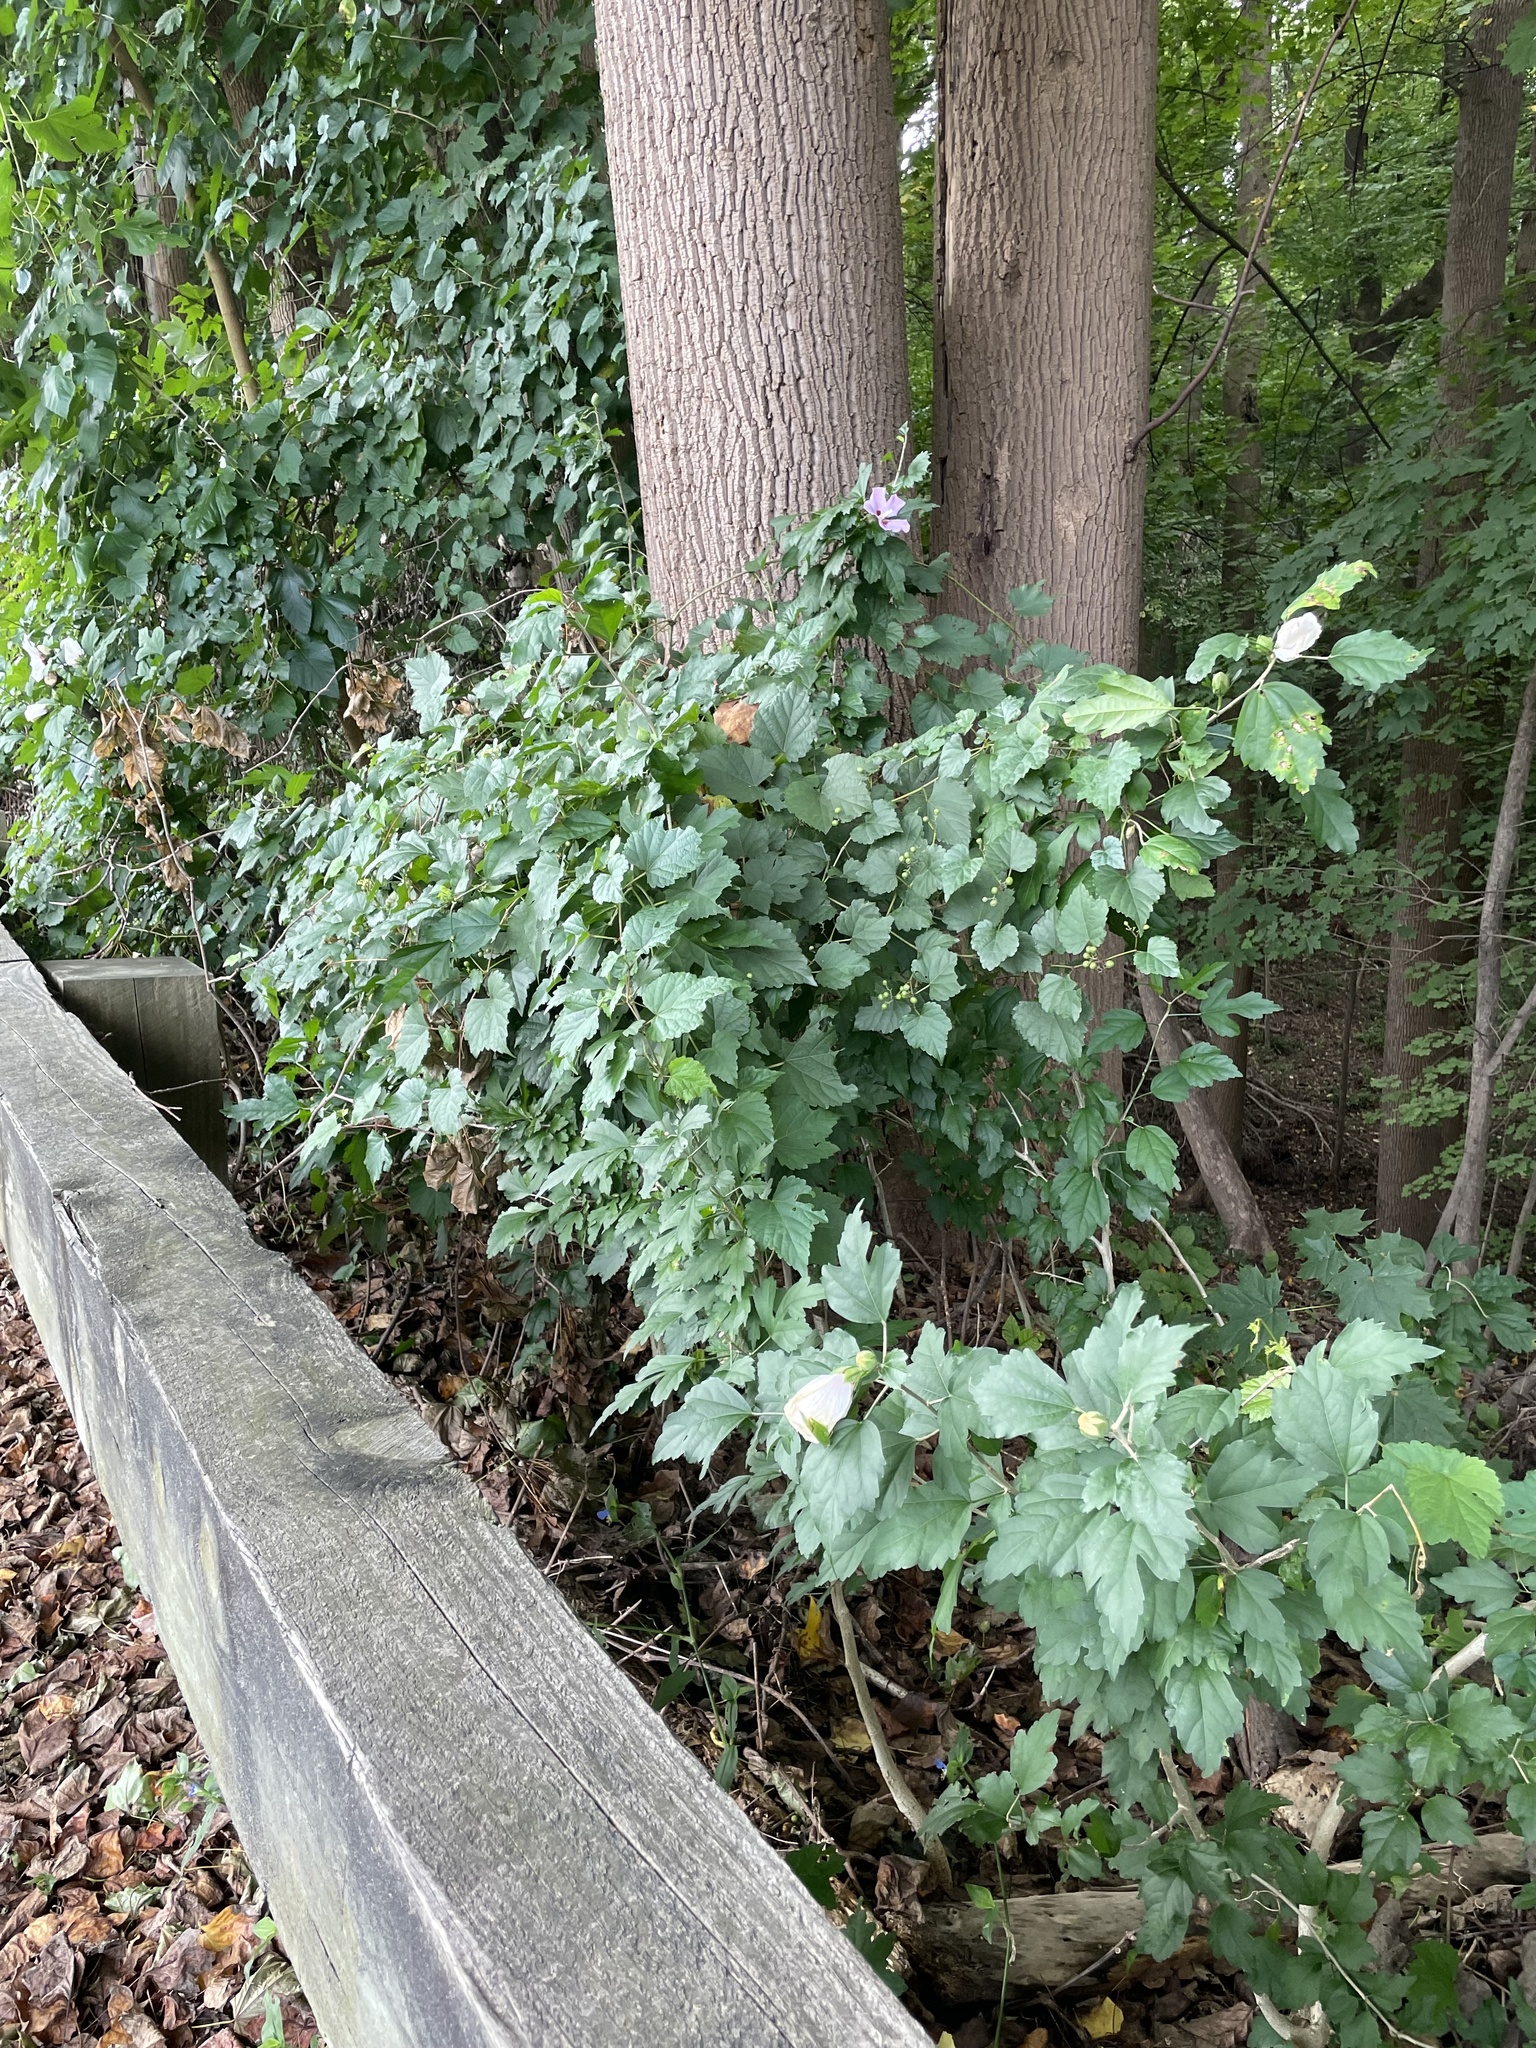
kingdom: Plantae
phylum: Tracheophyta
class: Magnoliopsida
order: Malvales
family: Malvaceae
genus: Hibiscus
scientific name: Hibiscus syriacus
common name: Syrian ketmia
